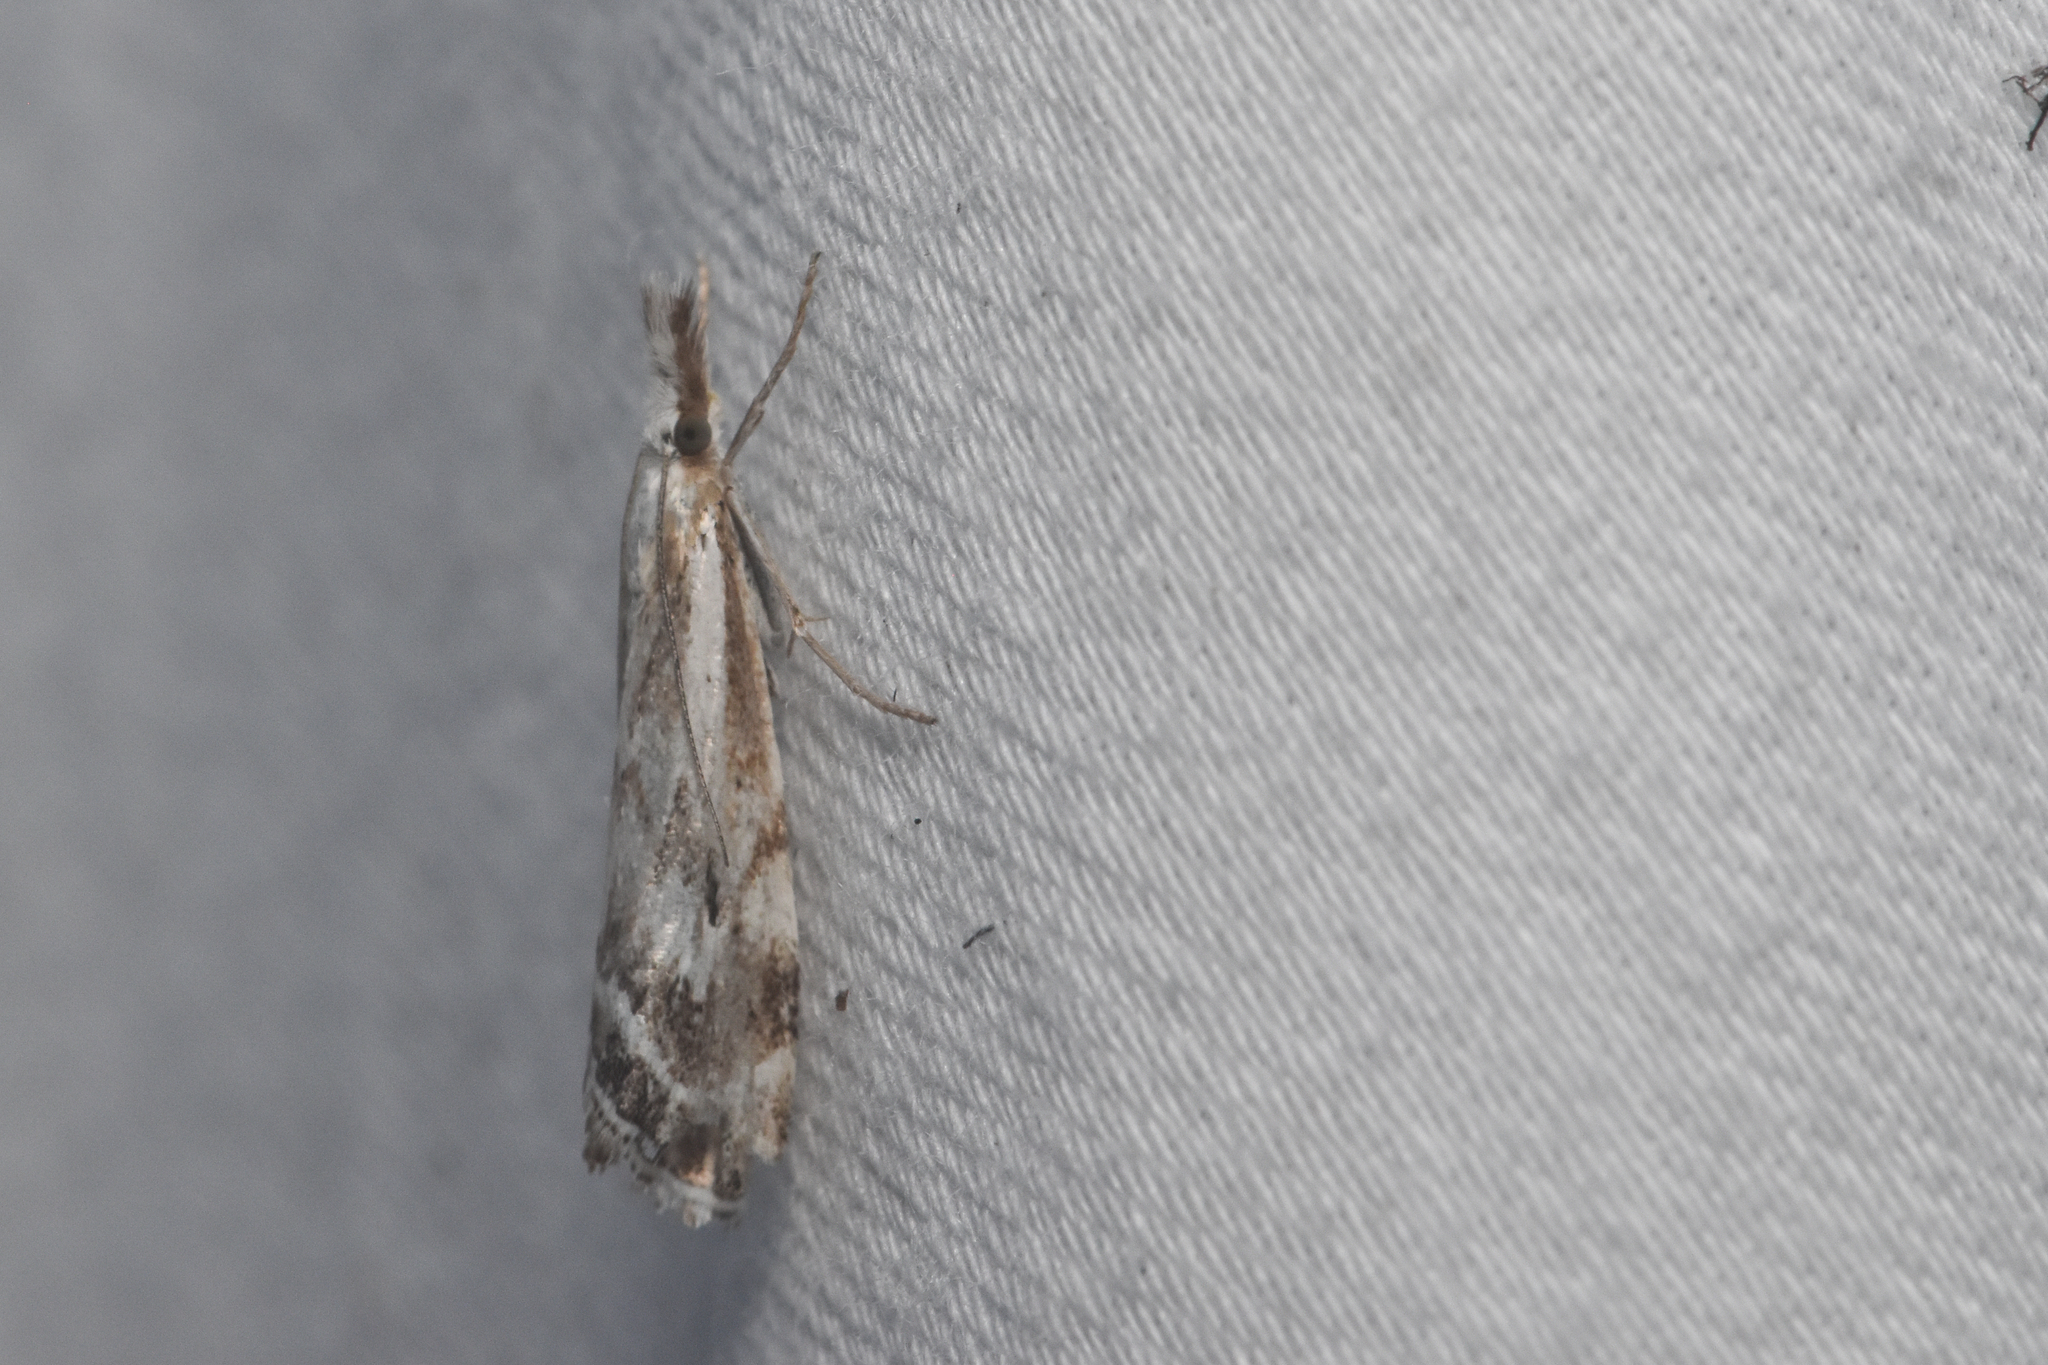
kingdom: Animalia
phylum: Arthropoda
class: Insecta
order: Lepidoptera
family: Crambidae
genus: Catoptria
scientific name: Catoptria oregonicus
